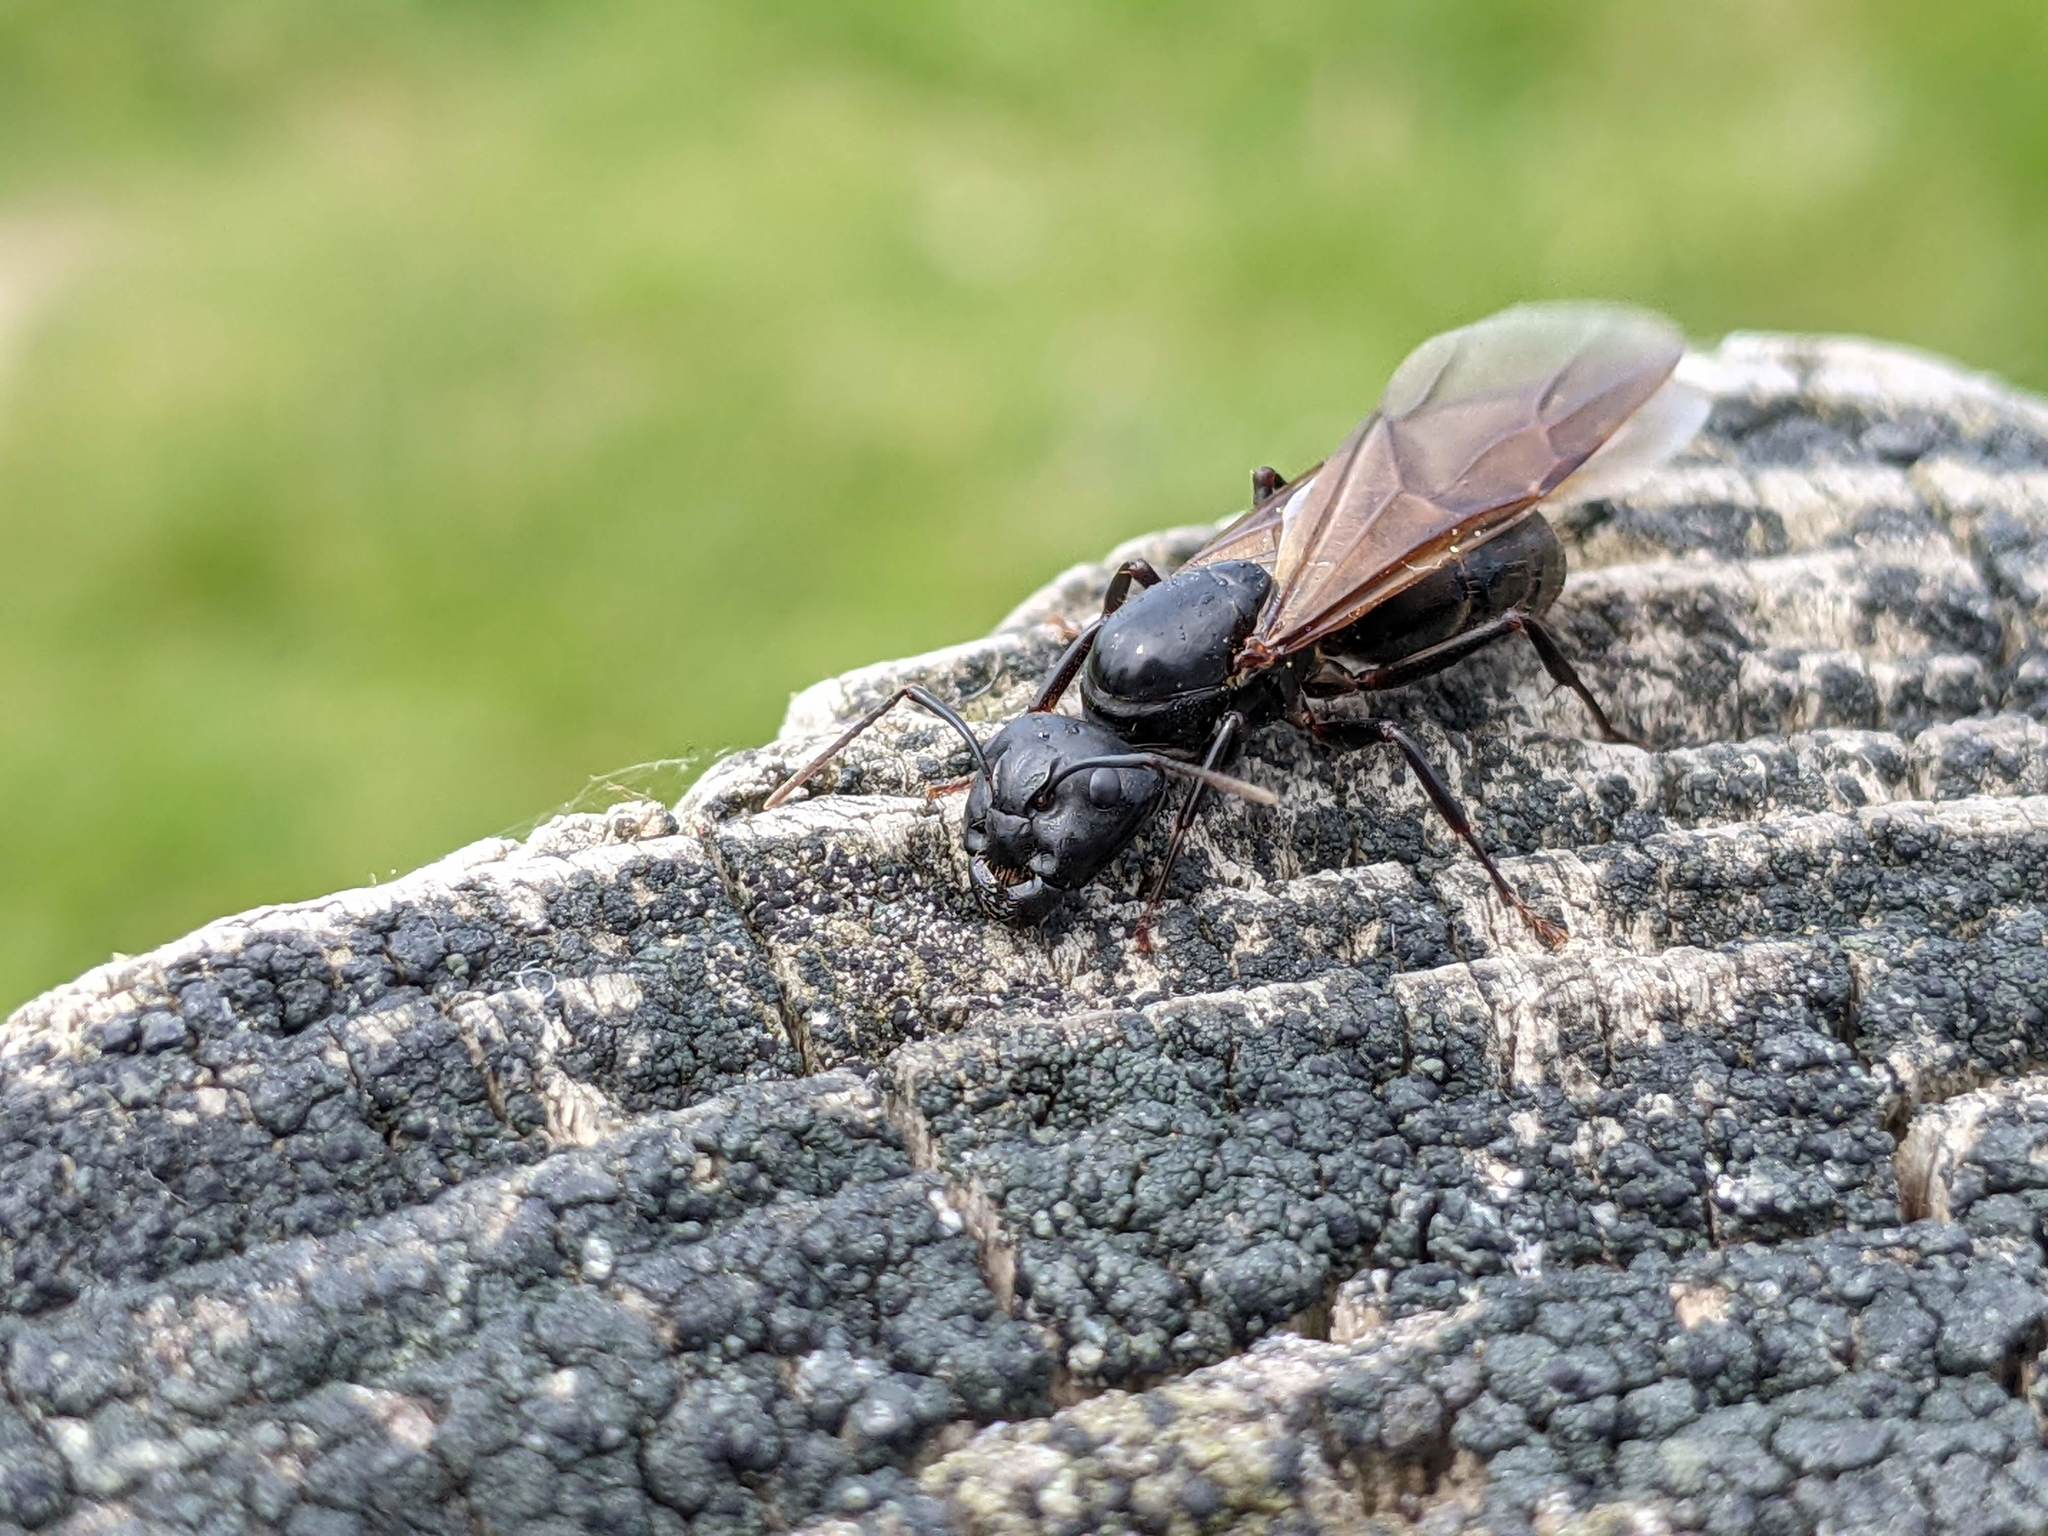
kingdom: Animalia
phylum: Arthropoda
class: Insecta
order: Hymenoptera
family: Formicidae
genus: Camponotus
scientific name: Camponotus pennsylvanicus
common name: Black carpenter ant
